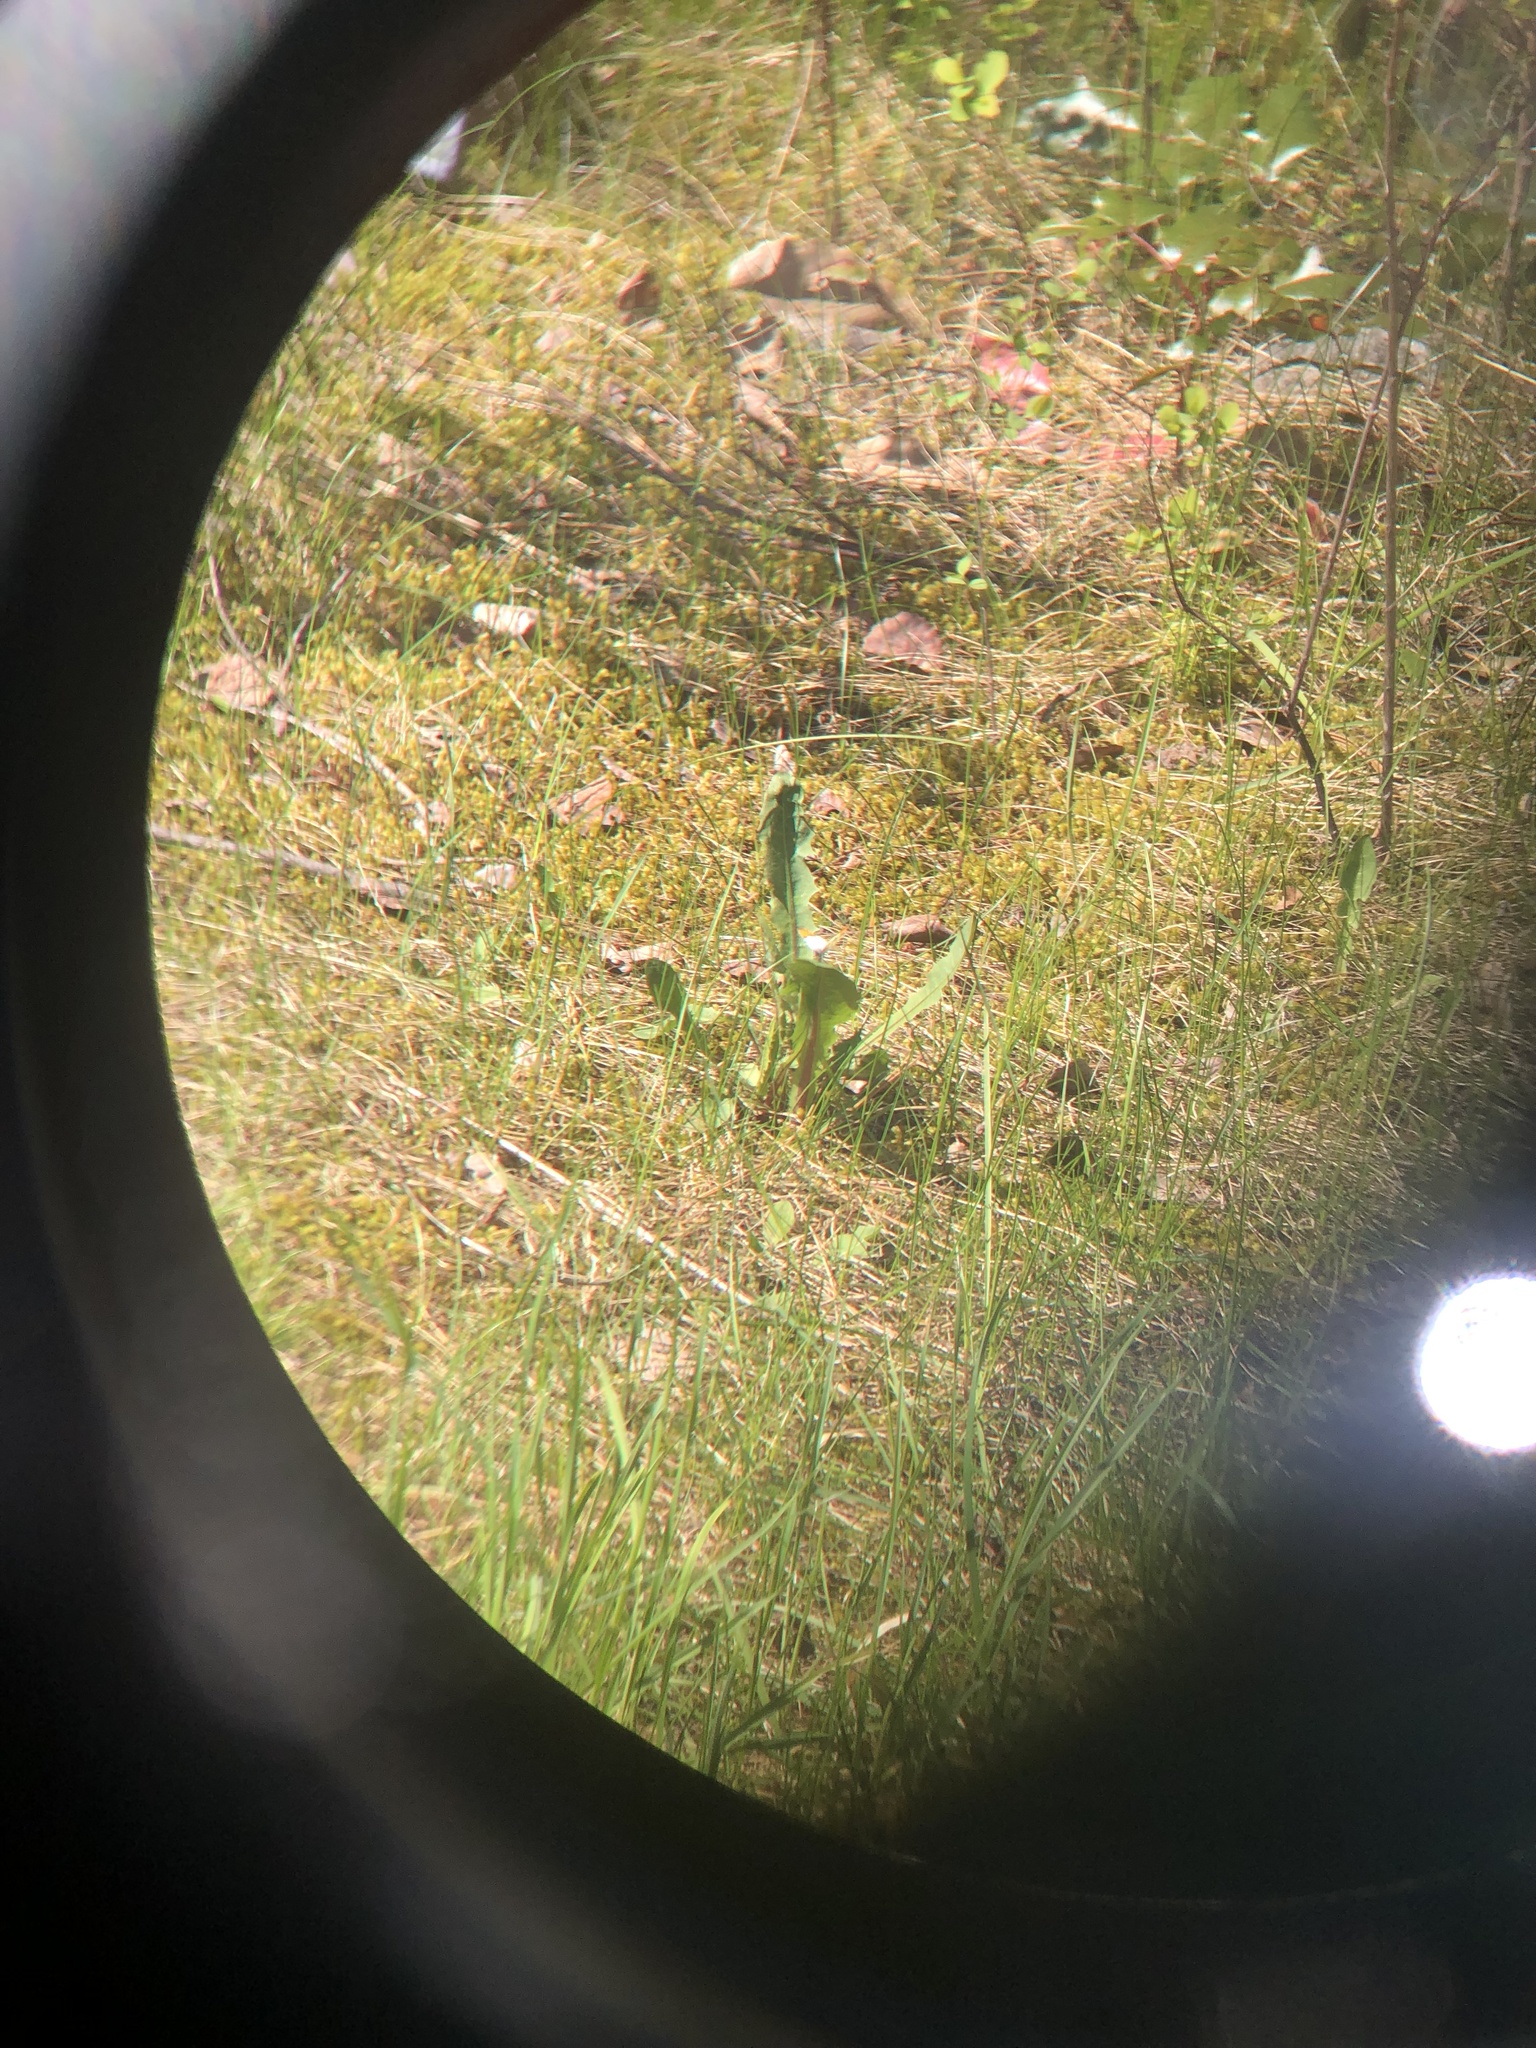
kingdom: Animalia
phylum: Arthropoda
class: Insecta
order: Lepidoptera
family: Pieridae
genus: Anthocharis
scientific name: Anthocharis julia
